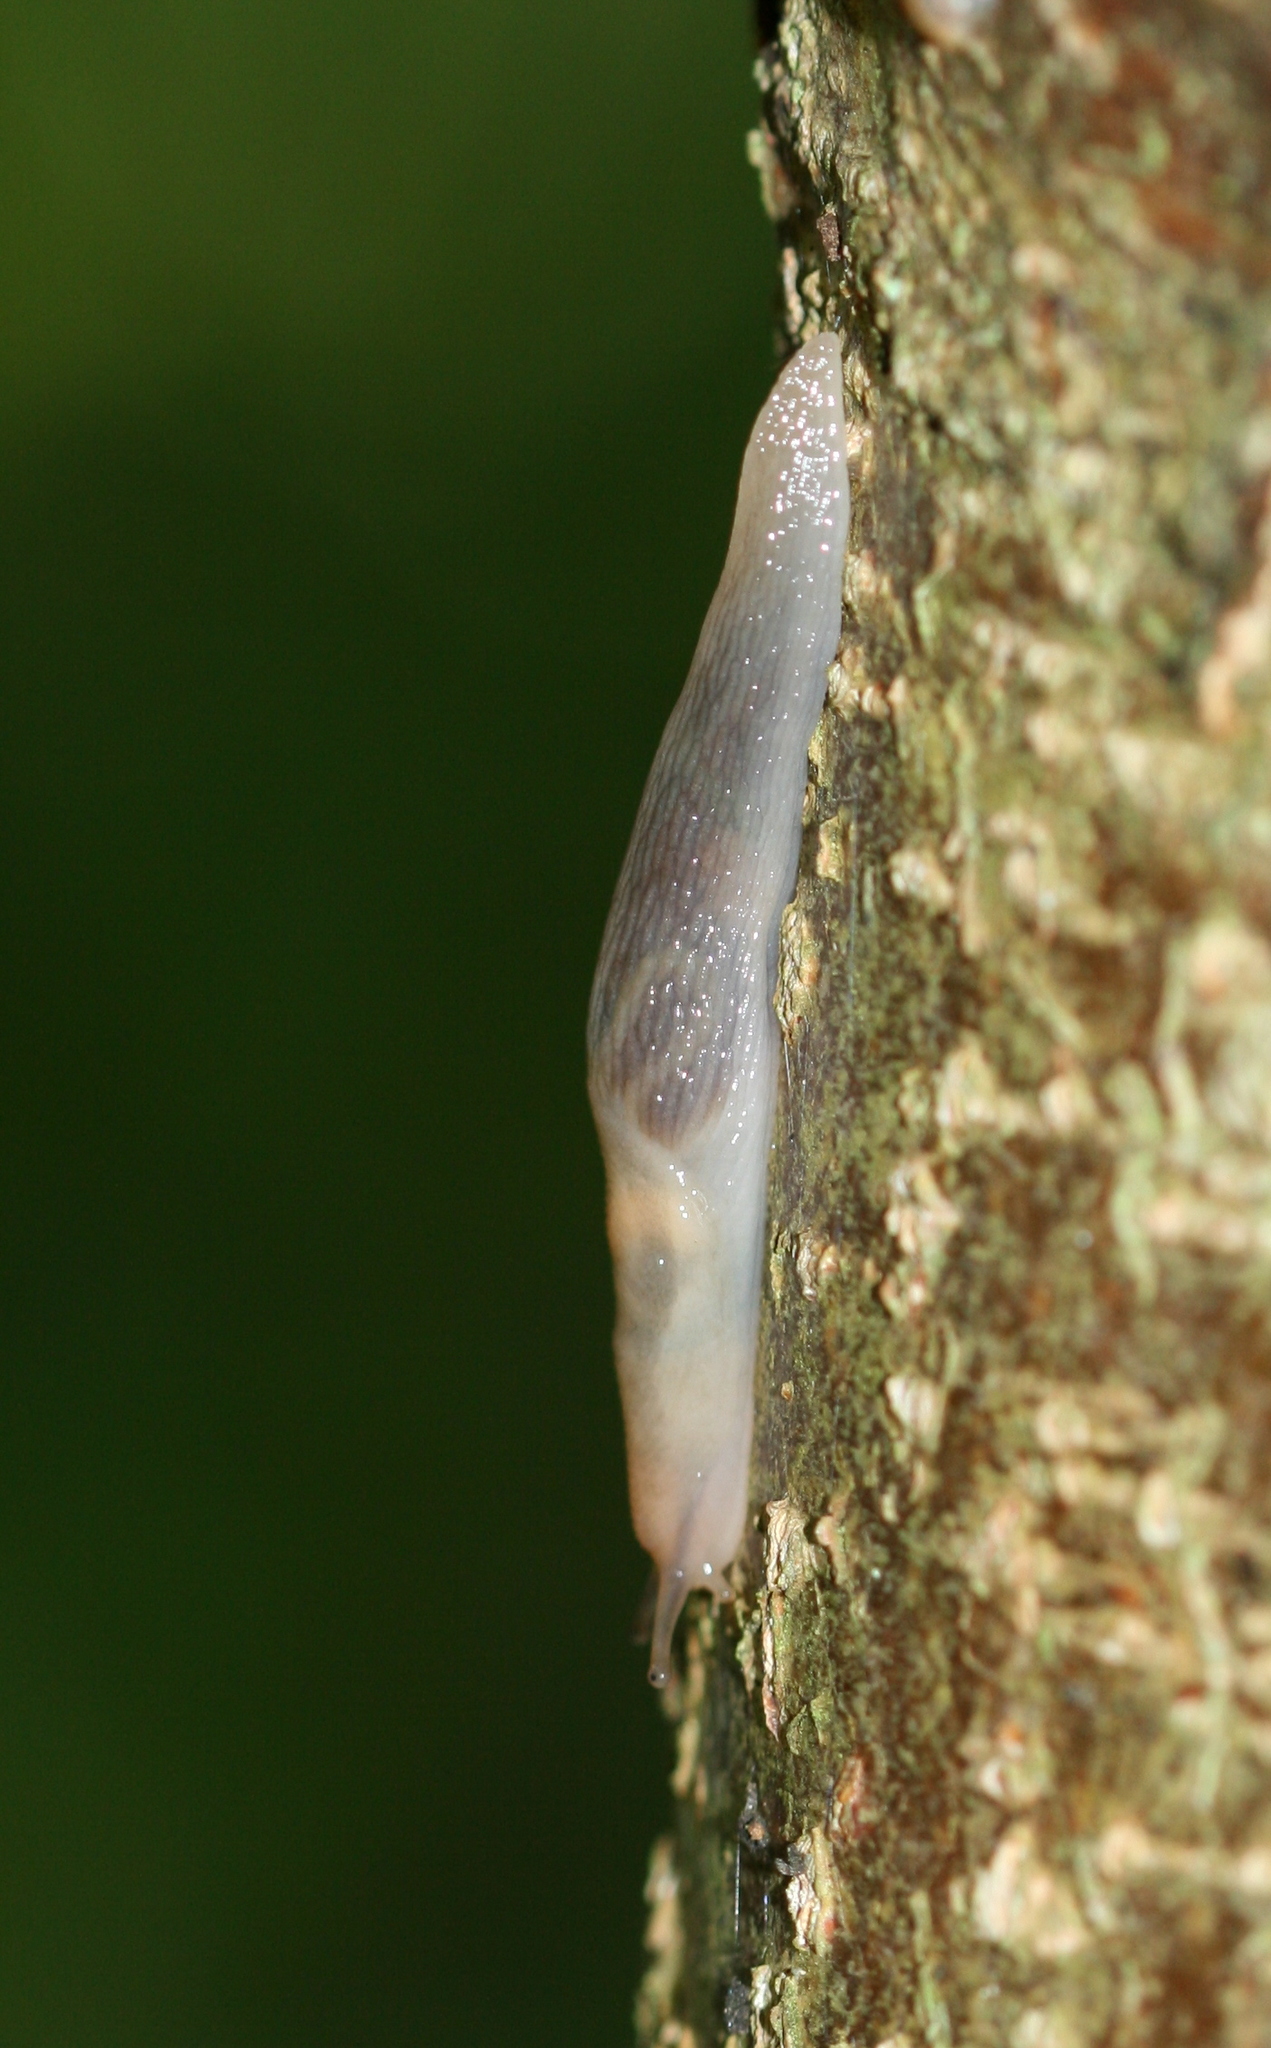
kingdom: Animalia
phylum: Mollusca
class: Gastropoda
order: Stylommatophora
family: Limacidae
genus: Lehmannia
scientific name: Lehmannia marginata
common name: Tree slug
